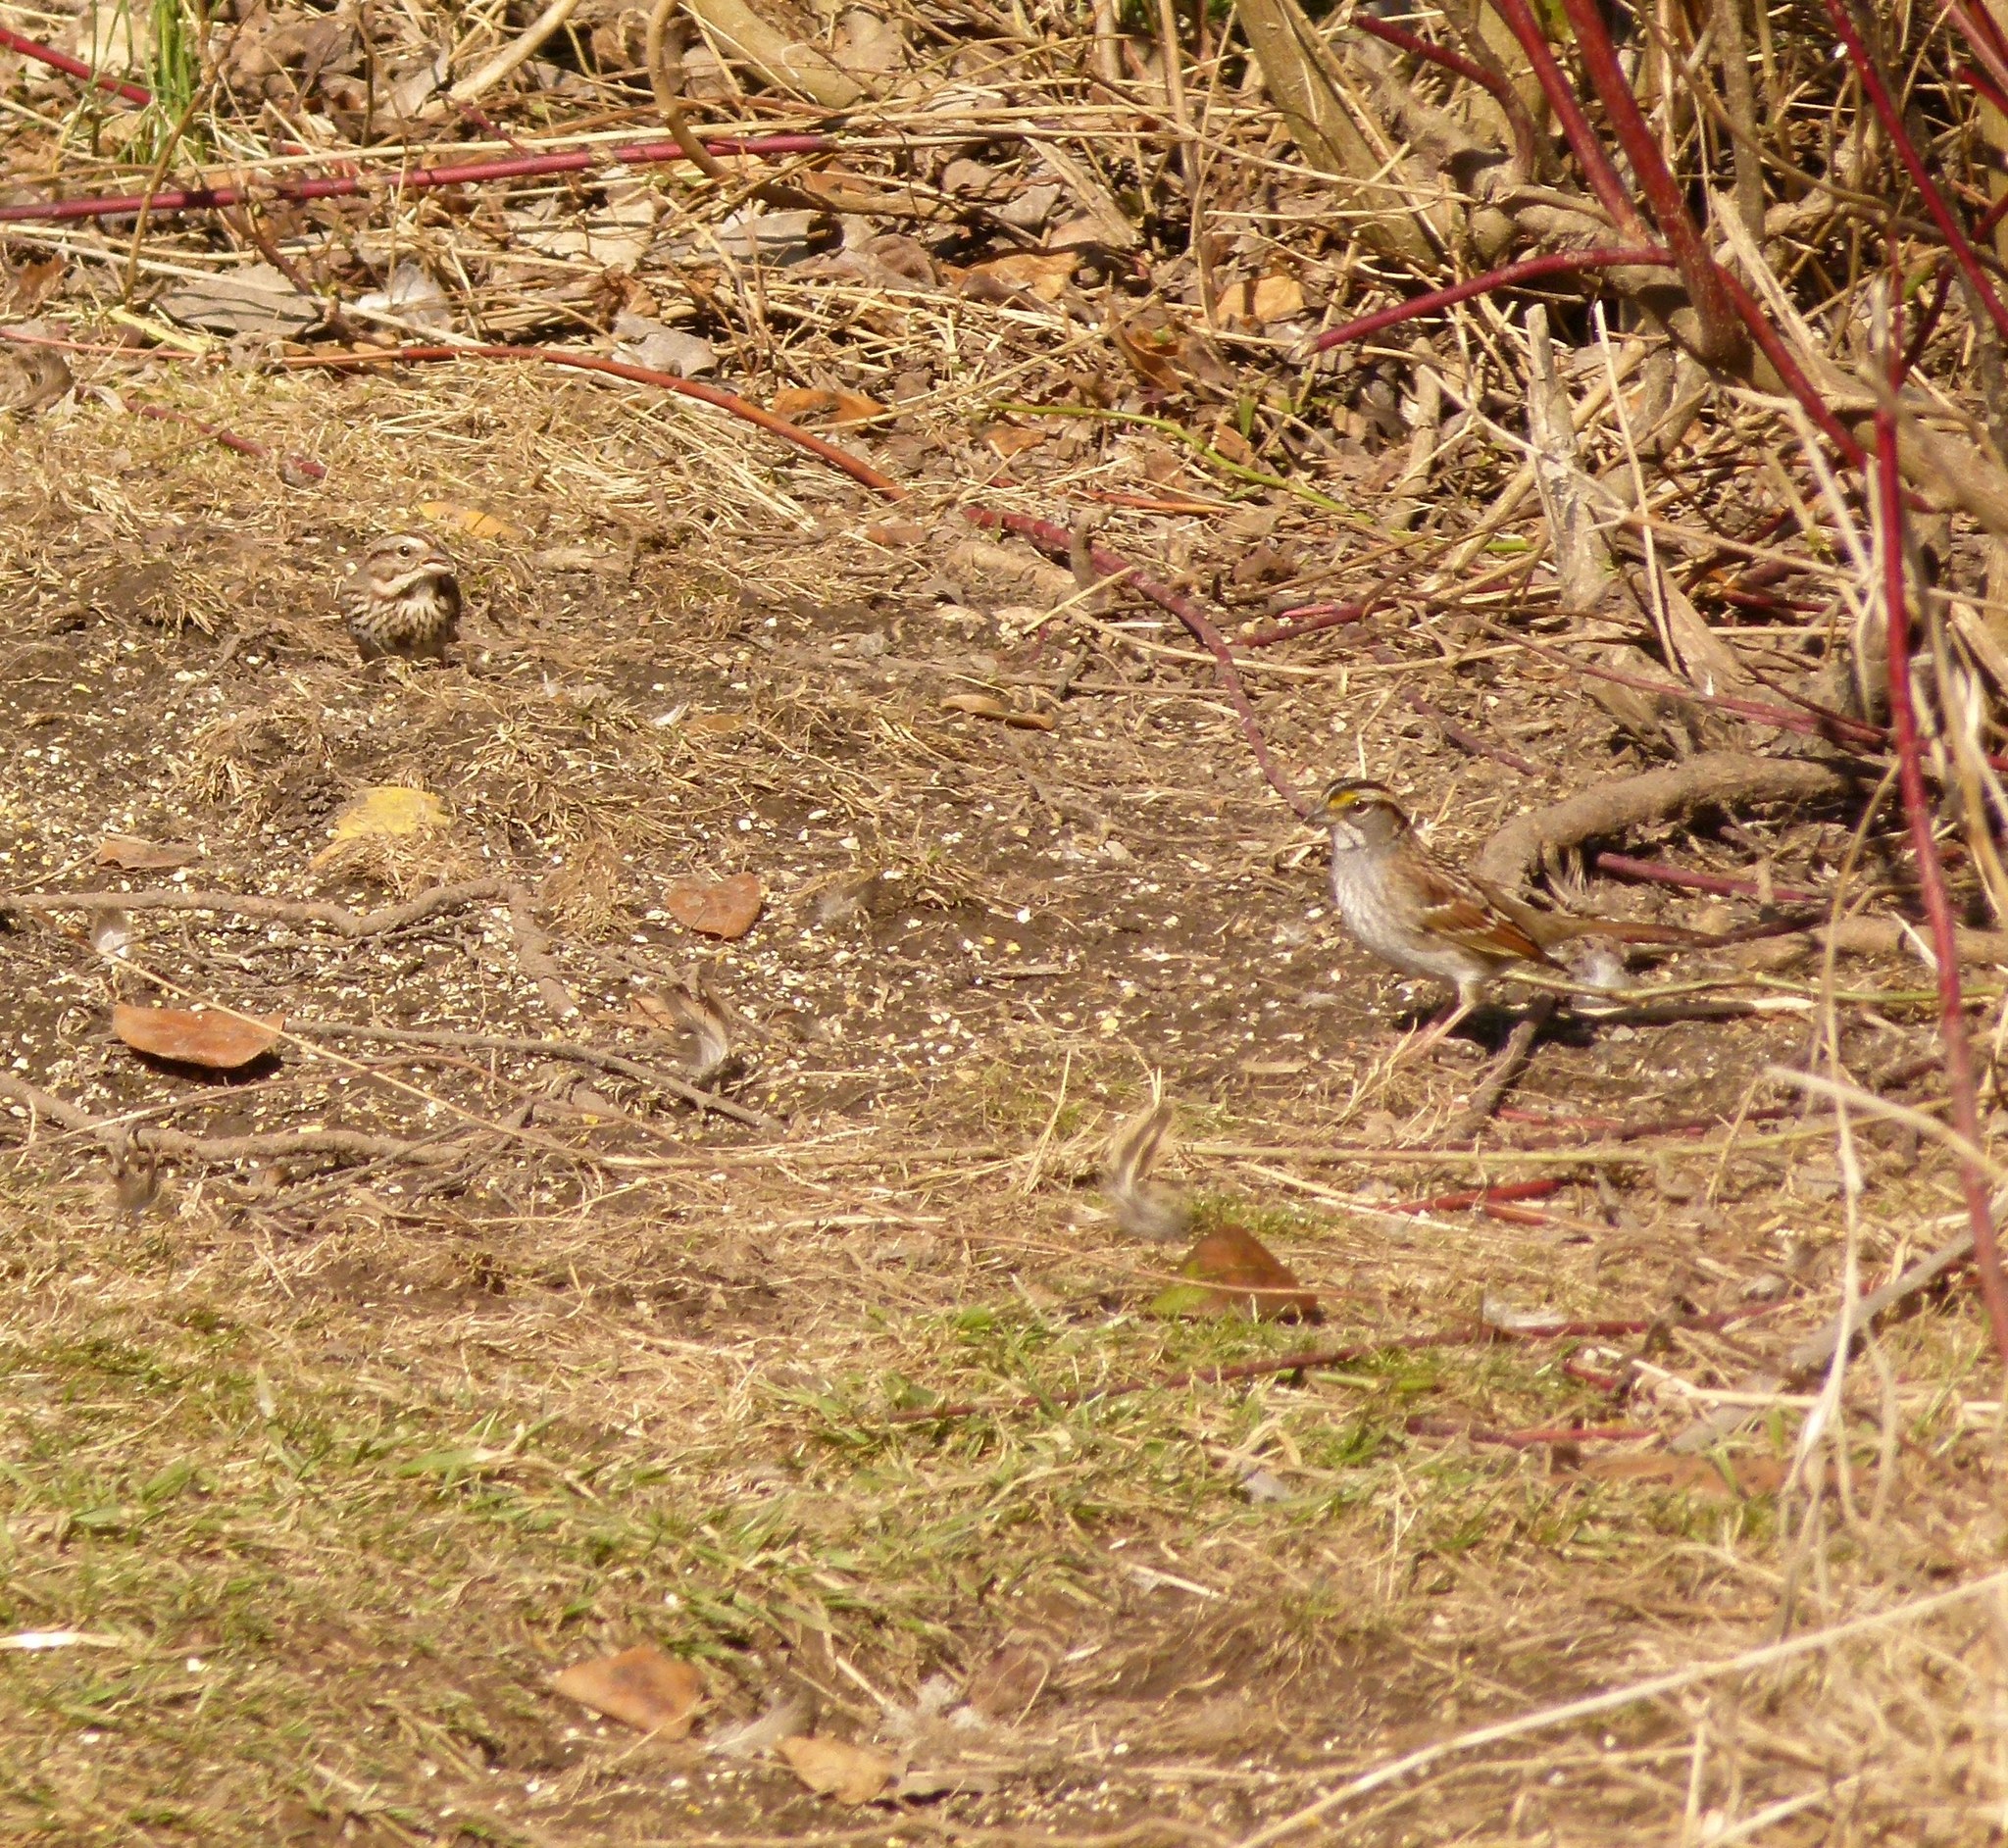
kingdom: Animalia
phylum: Chordata
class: Aves
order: Passeriformes
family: Passerellidae
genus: Melospiza
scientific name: Melospiza melodia
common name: Song sparrow
